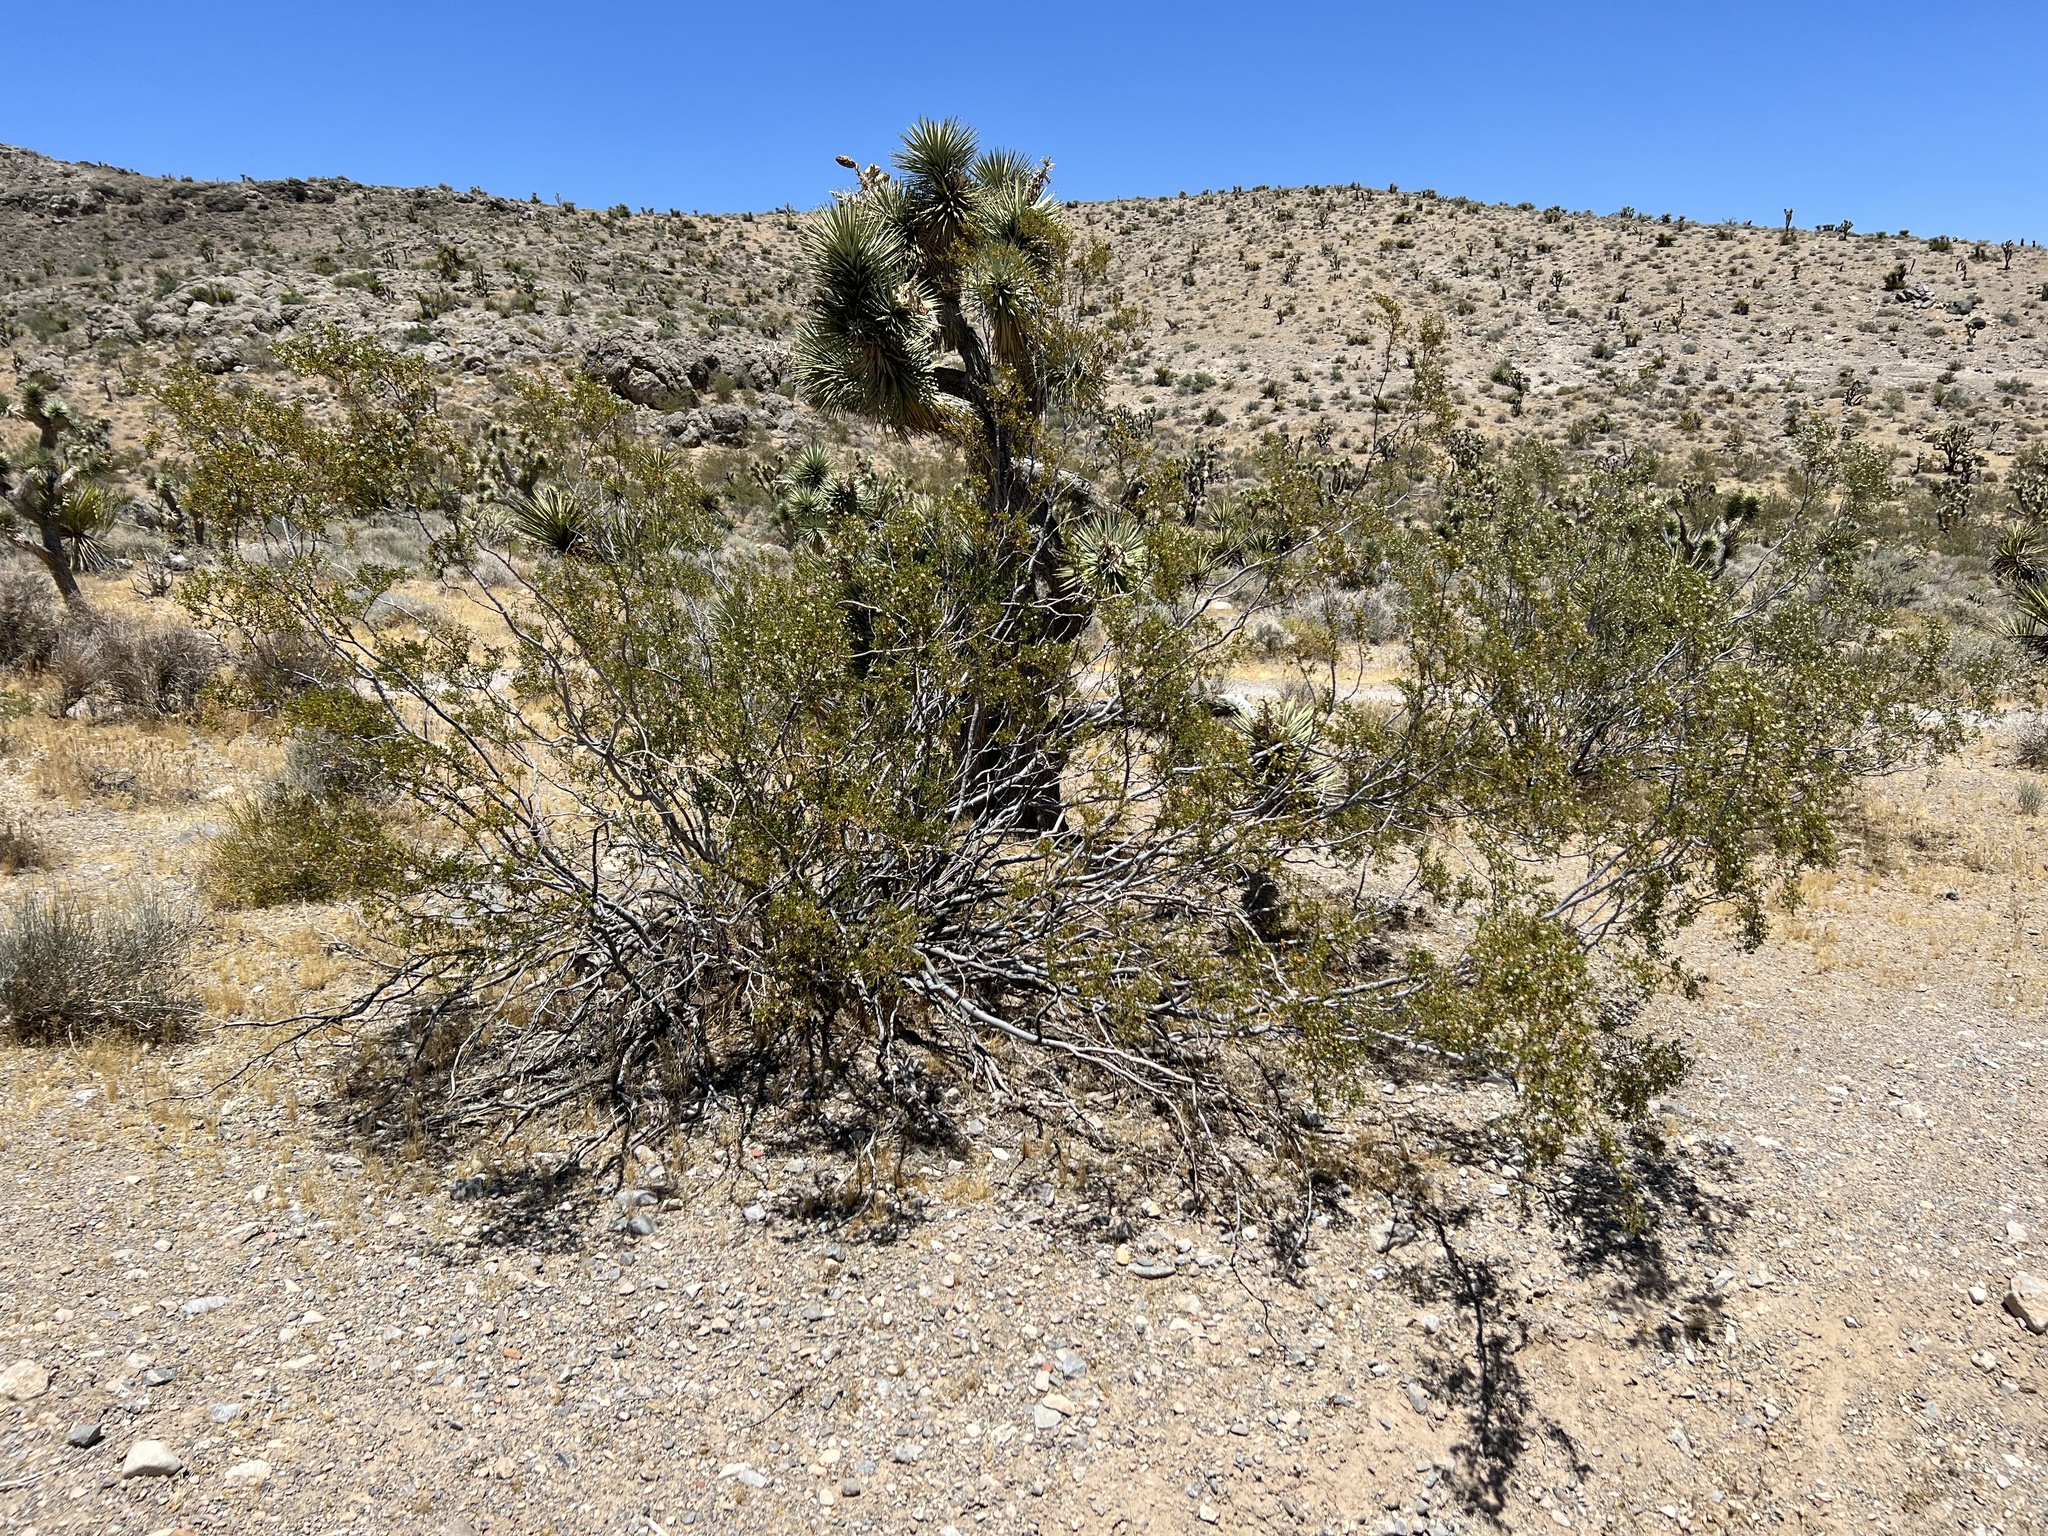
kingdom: Plantae
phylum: Tracheophyta
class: Magnoliopsida
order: Zygophyllales
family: Zygophyllaceae
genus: Larrea
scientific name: Larrea tridentata
